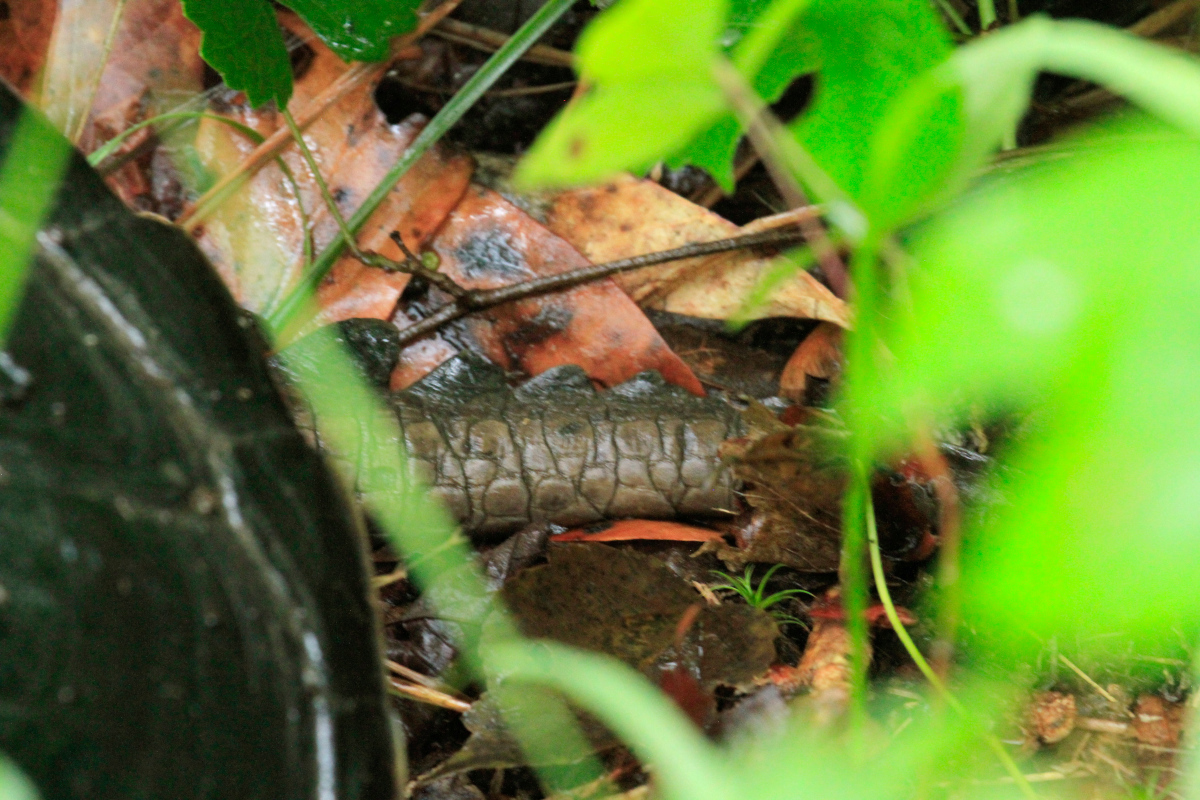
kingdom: Animalia
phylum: Chordata
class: Testudines
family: Chelydridae
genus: Chelydra
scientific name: Chelydra serpentina
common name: Common snapping turtle
